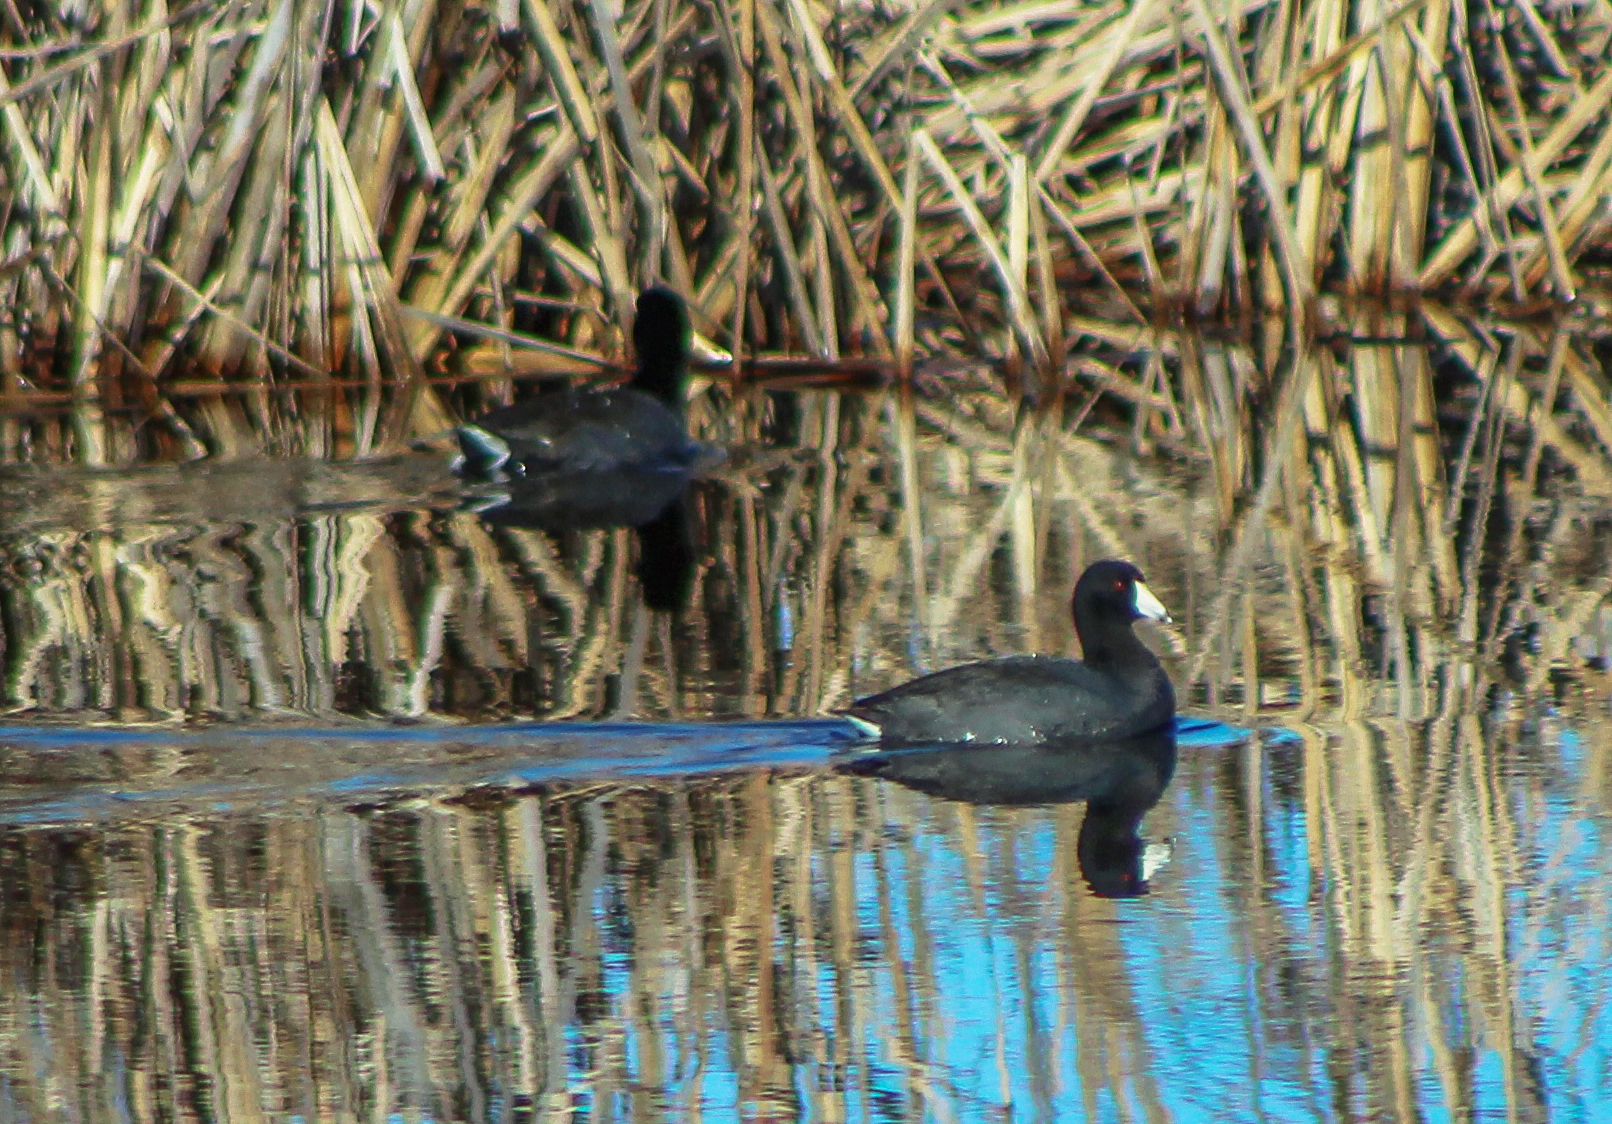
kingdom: Animalia
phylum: Chordata
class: Aves
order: Gruiformes
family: Rallidae
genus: Fulica
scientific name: Fulica americana
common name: American coot
